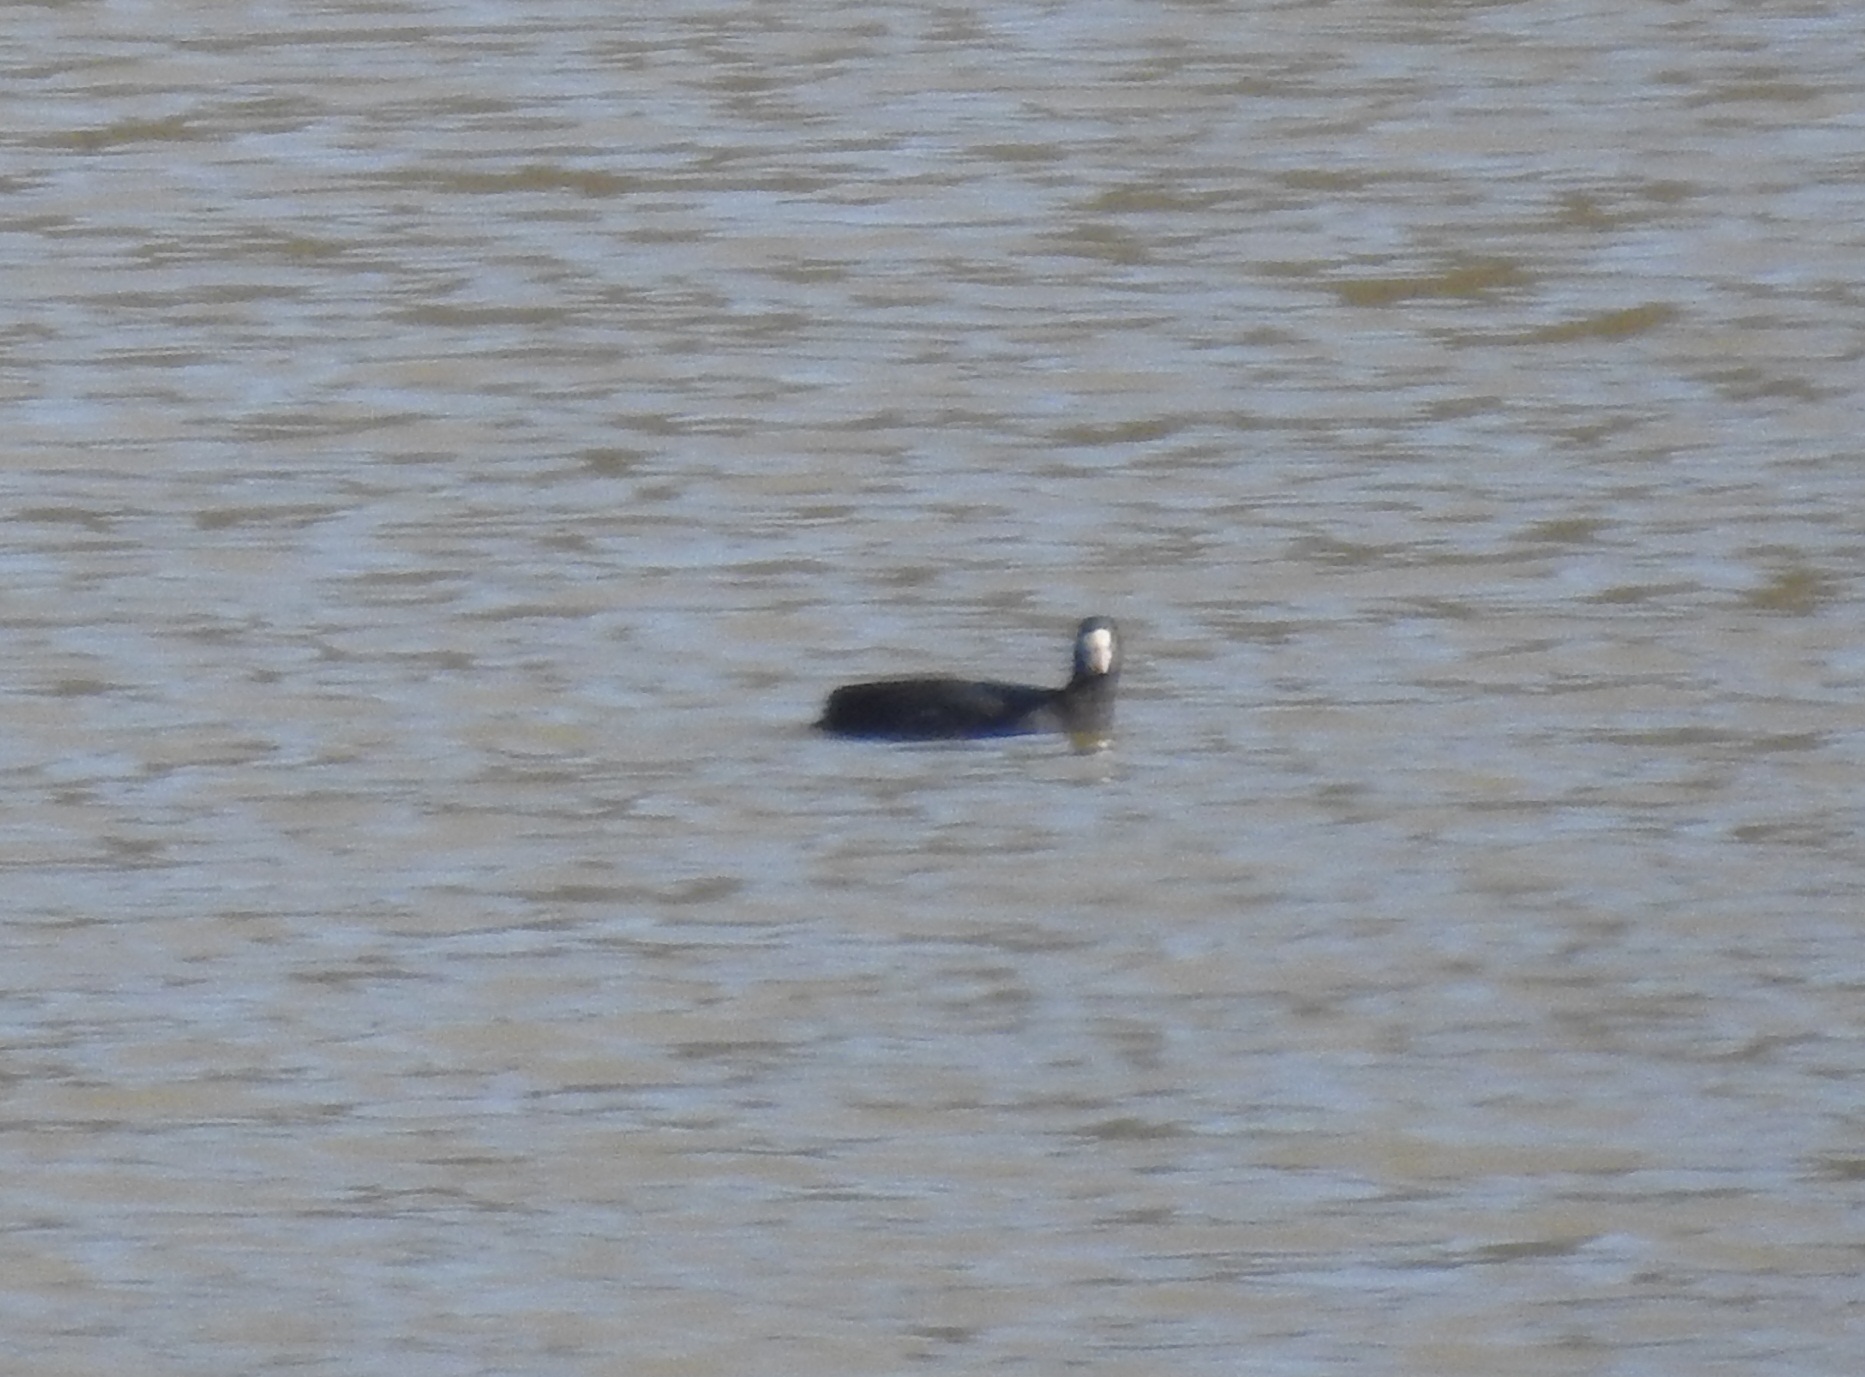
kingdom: Animalia
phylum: Chordata
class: Aves
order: Gruiformes
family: Rallidae
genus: Fulica
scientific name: Fulica atra
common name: Eurasian coot
